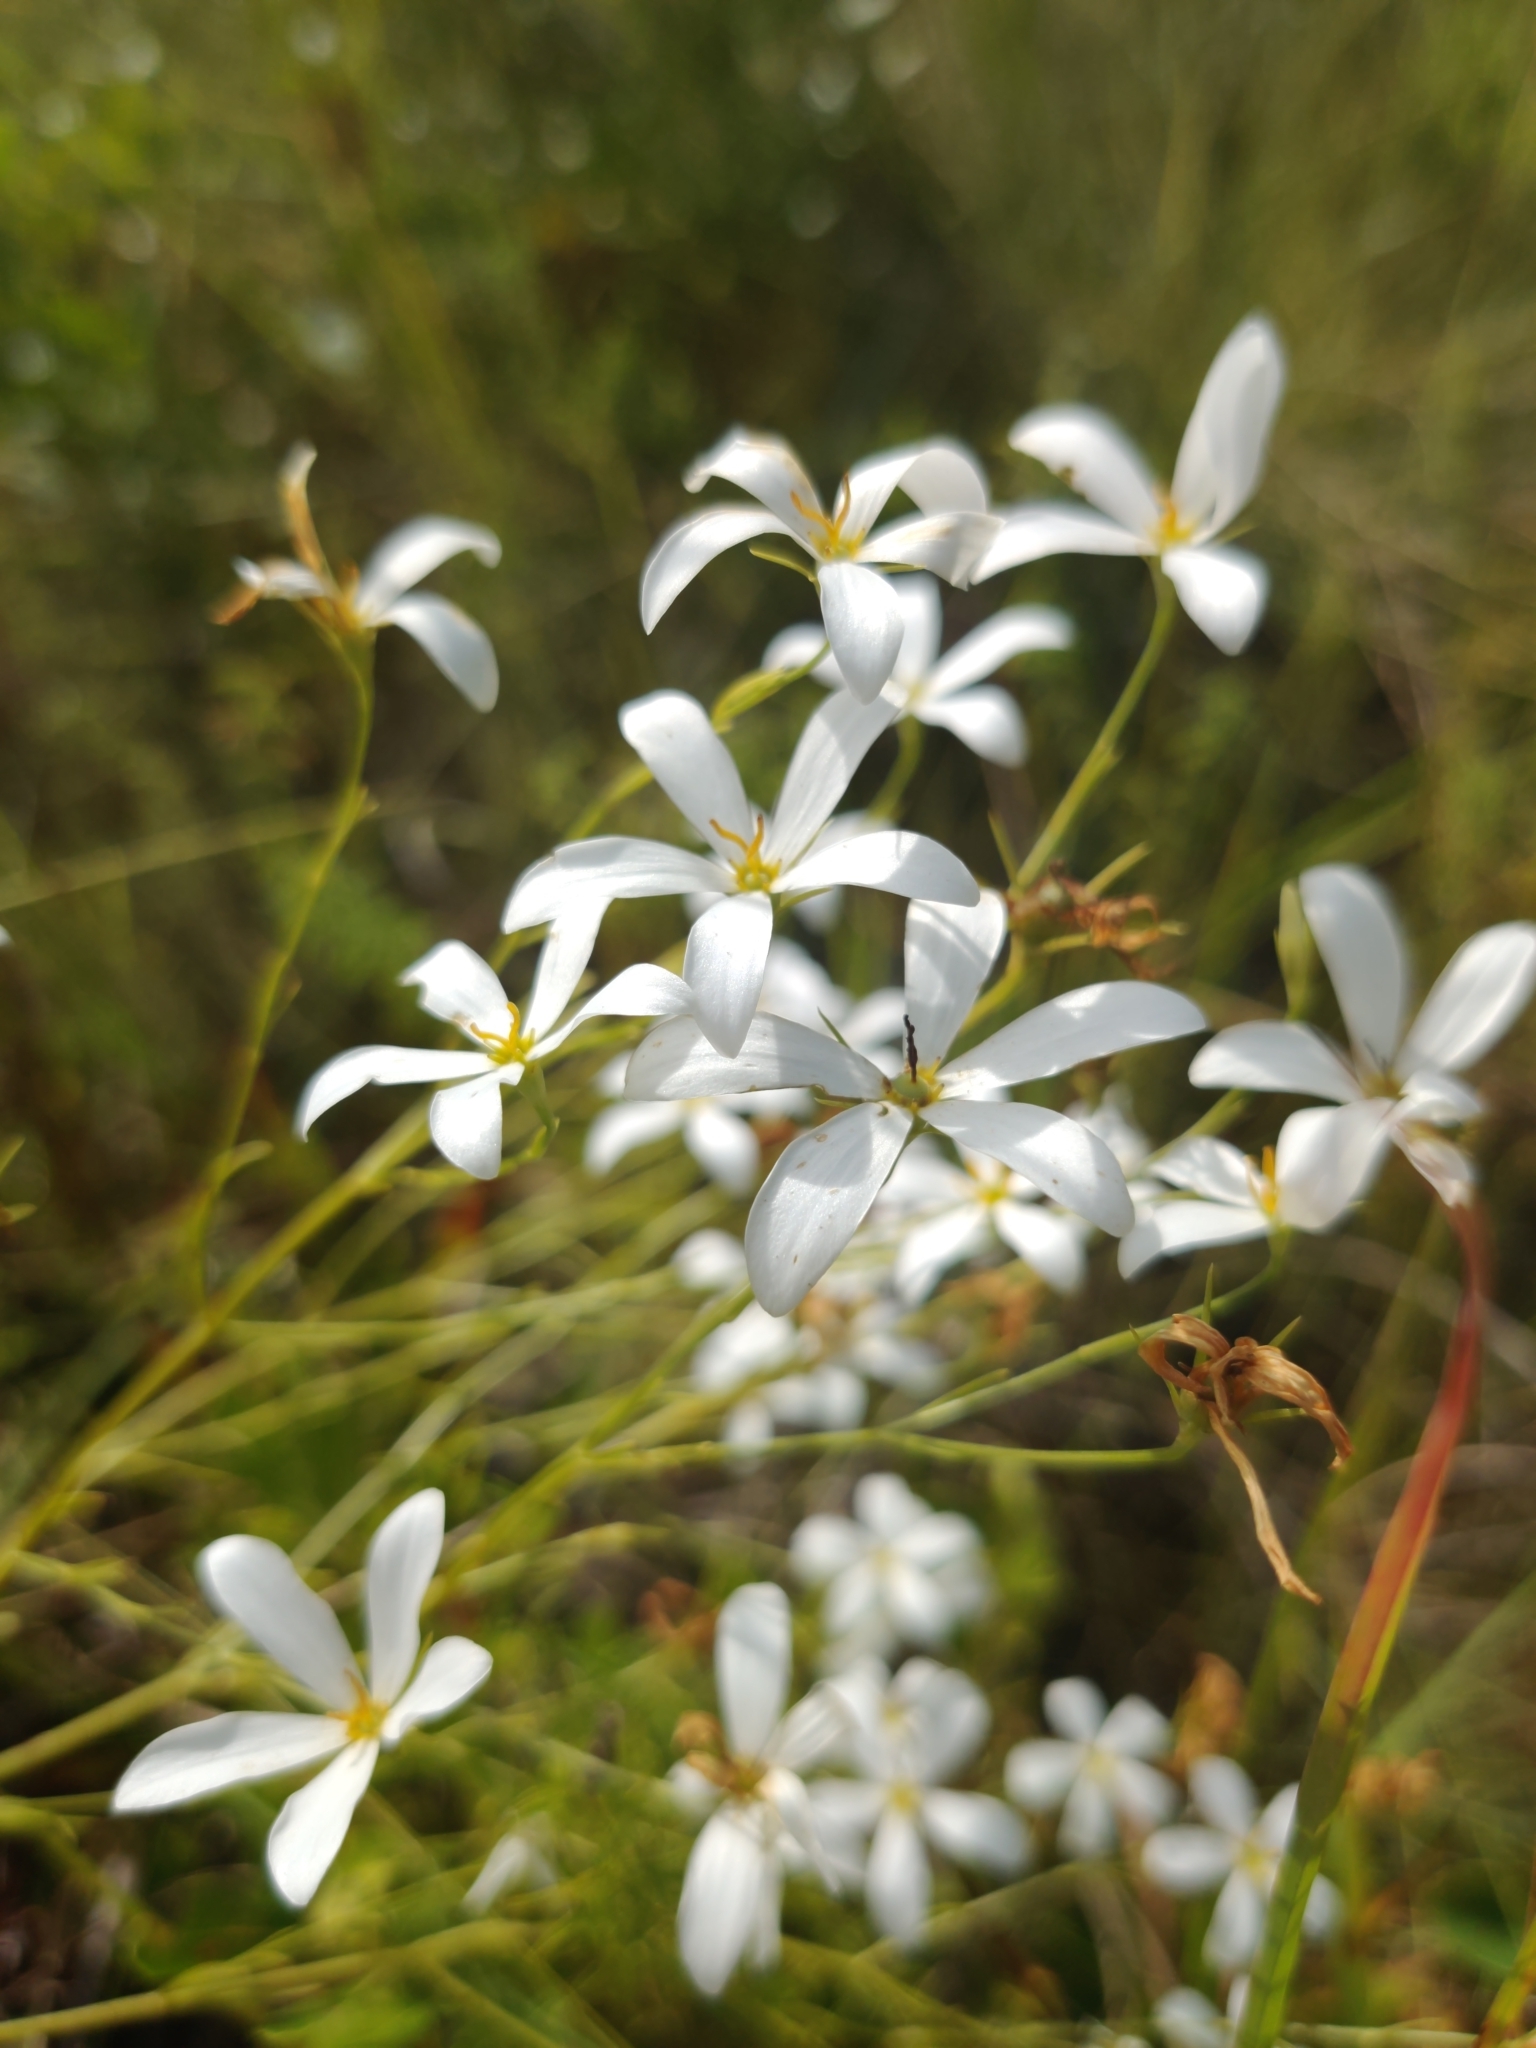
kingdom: Plantae
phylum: Tracheophyta
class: Magnoliopsida
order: Gentianales
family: Gentianaceae
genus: Sabatia
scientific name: Sabatia brevifolia
